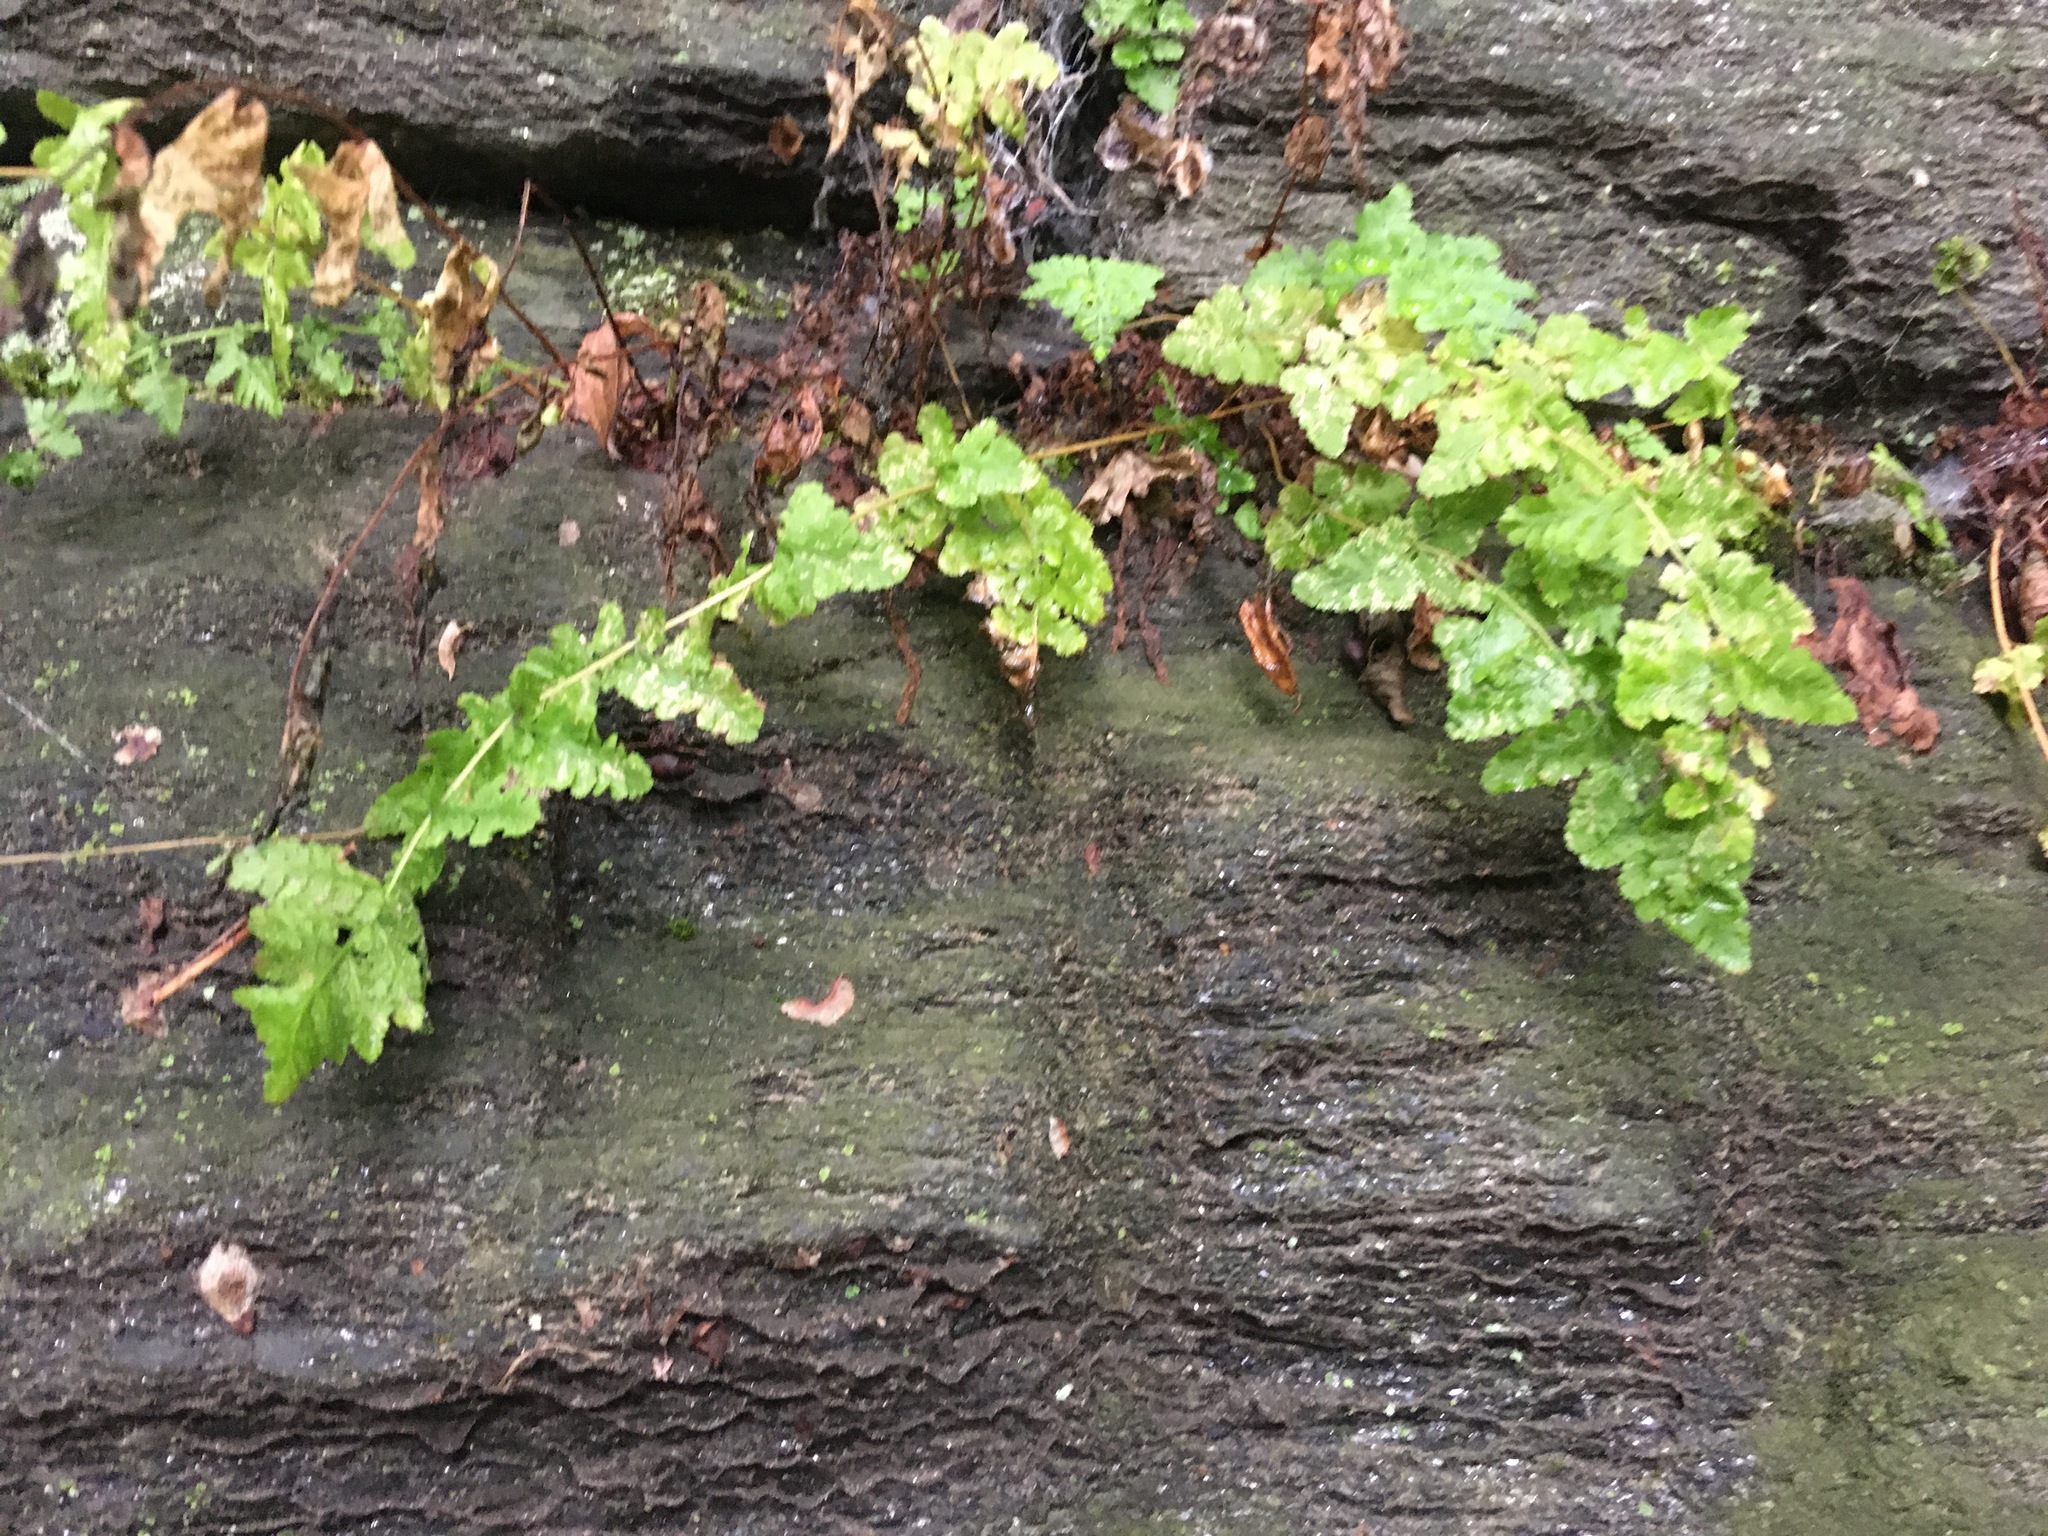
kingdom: Plantae
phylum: Tracheophyta
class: Polypodiopsida
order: Polypodiales
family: Woodsiaceae
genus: Physematium
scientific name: Physematium obtusum
